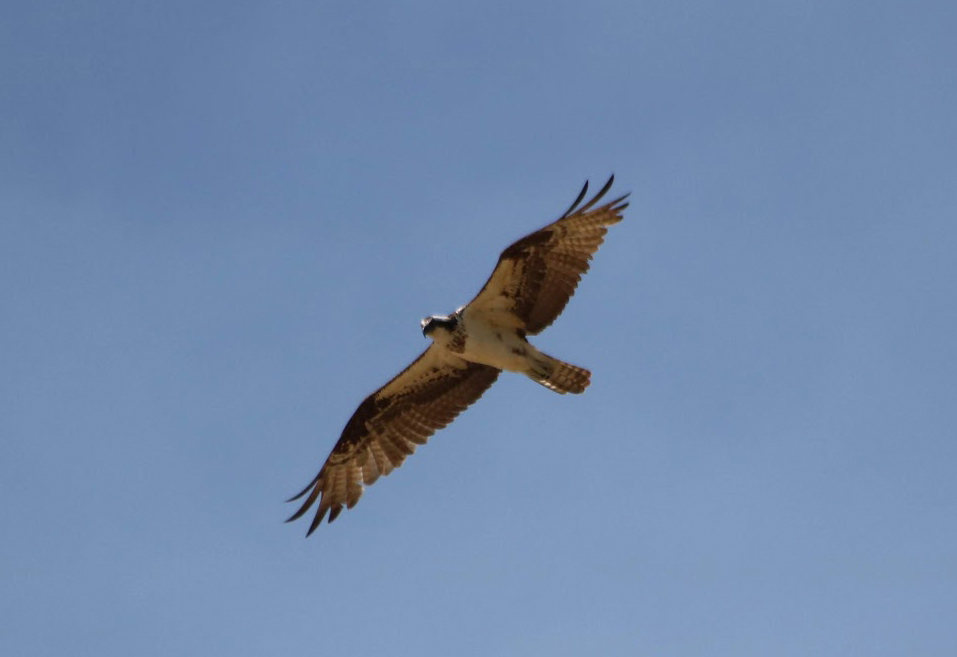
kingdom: Animalia
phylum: Chordata
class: Aves
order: Accipitriformes
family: Pandionidae
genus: Pandion
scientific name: Pandion haliaetus
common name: Osprey
